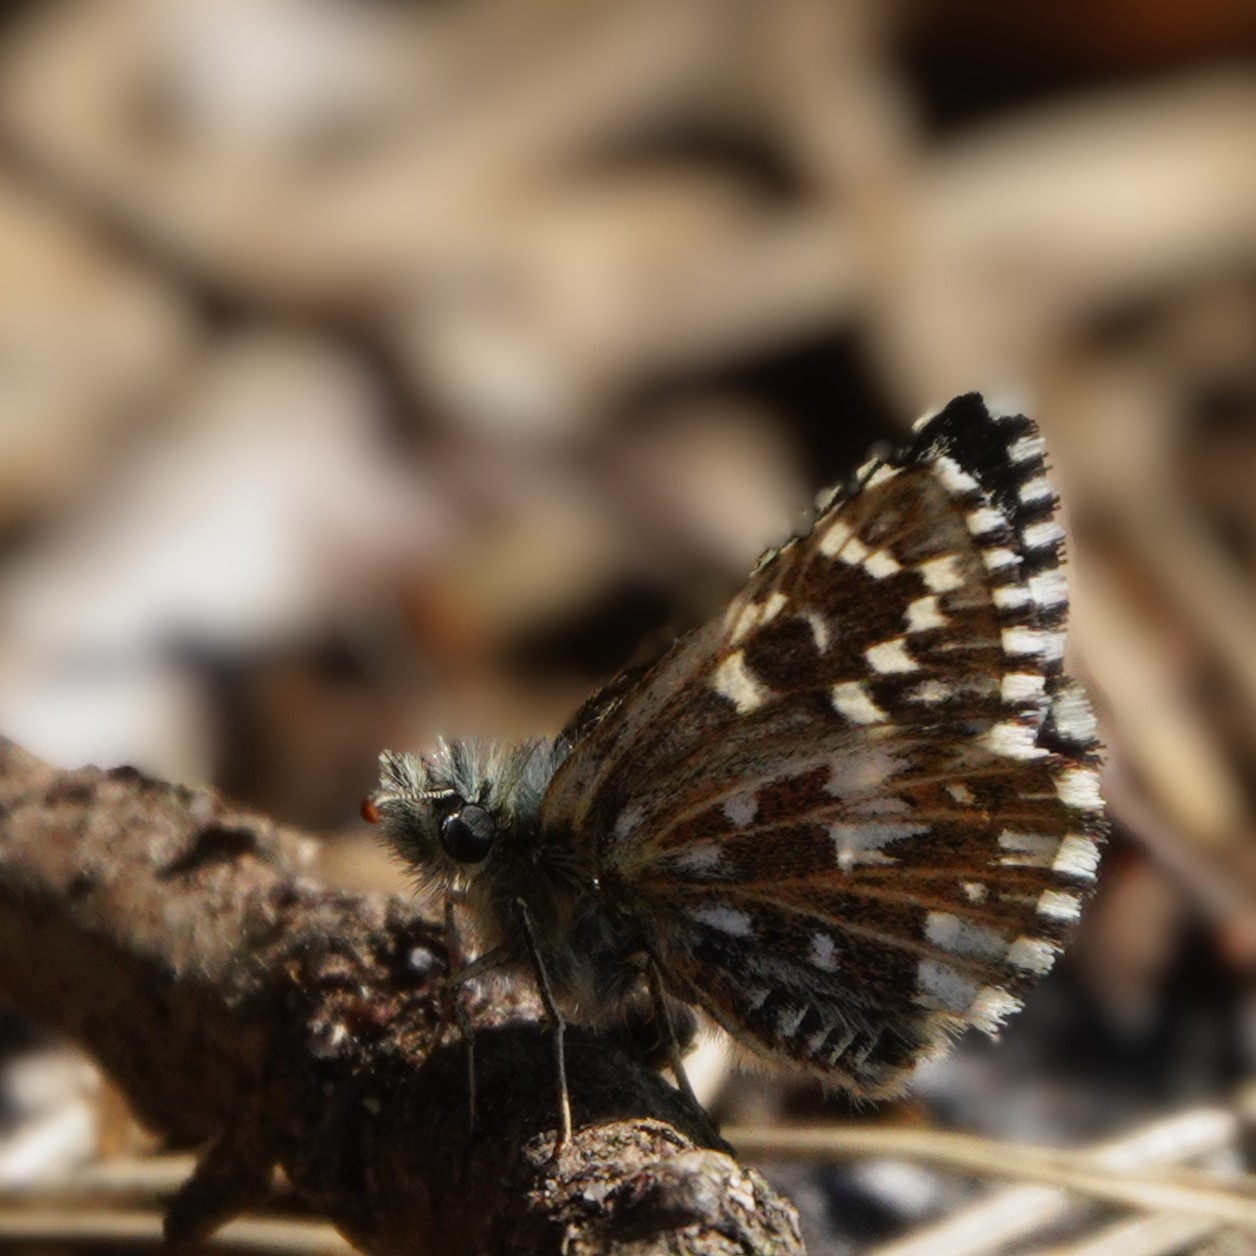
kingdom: Animalia
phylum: Arthropoda
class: Insecta
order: Lepidoptera
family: Hesperiidae
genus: Pyrgus
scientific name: Pyrgus malvae
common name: Grizzled skipper
